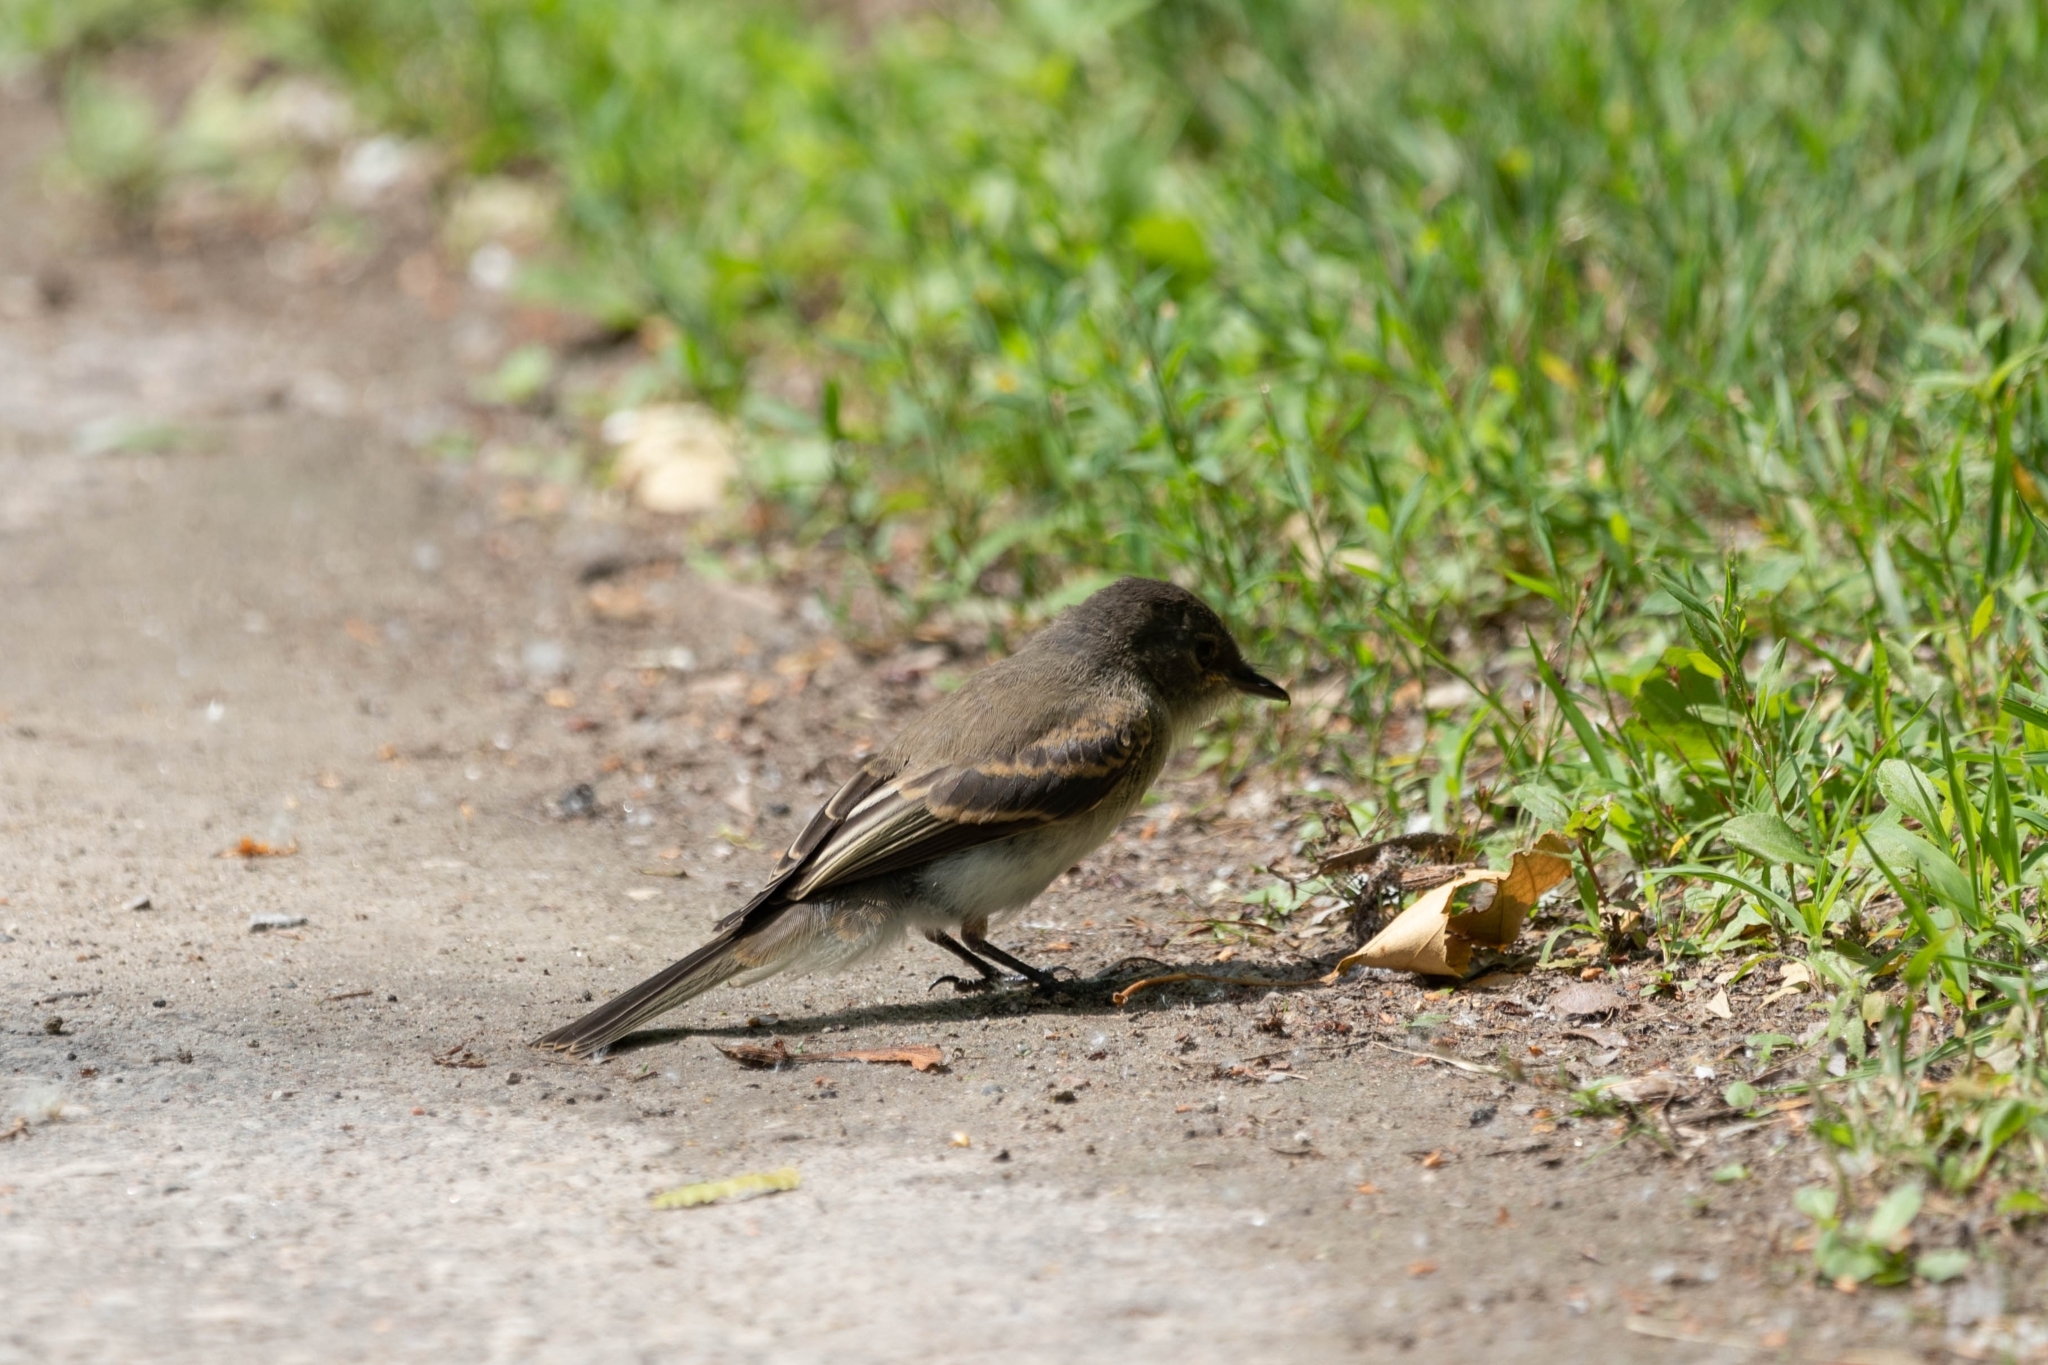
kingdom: Animalia
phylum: Chordata
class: Aves
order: Passeriformes
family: Tyrannidae
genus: Sayornis
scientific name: Sayornis phoebe
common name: Eastern phoebe
